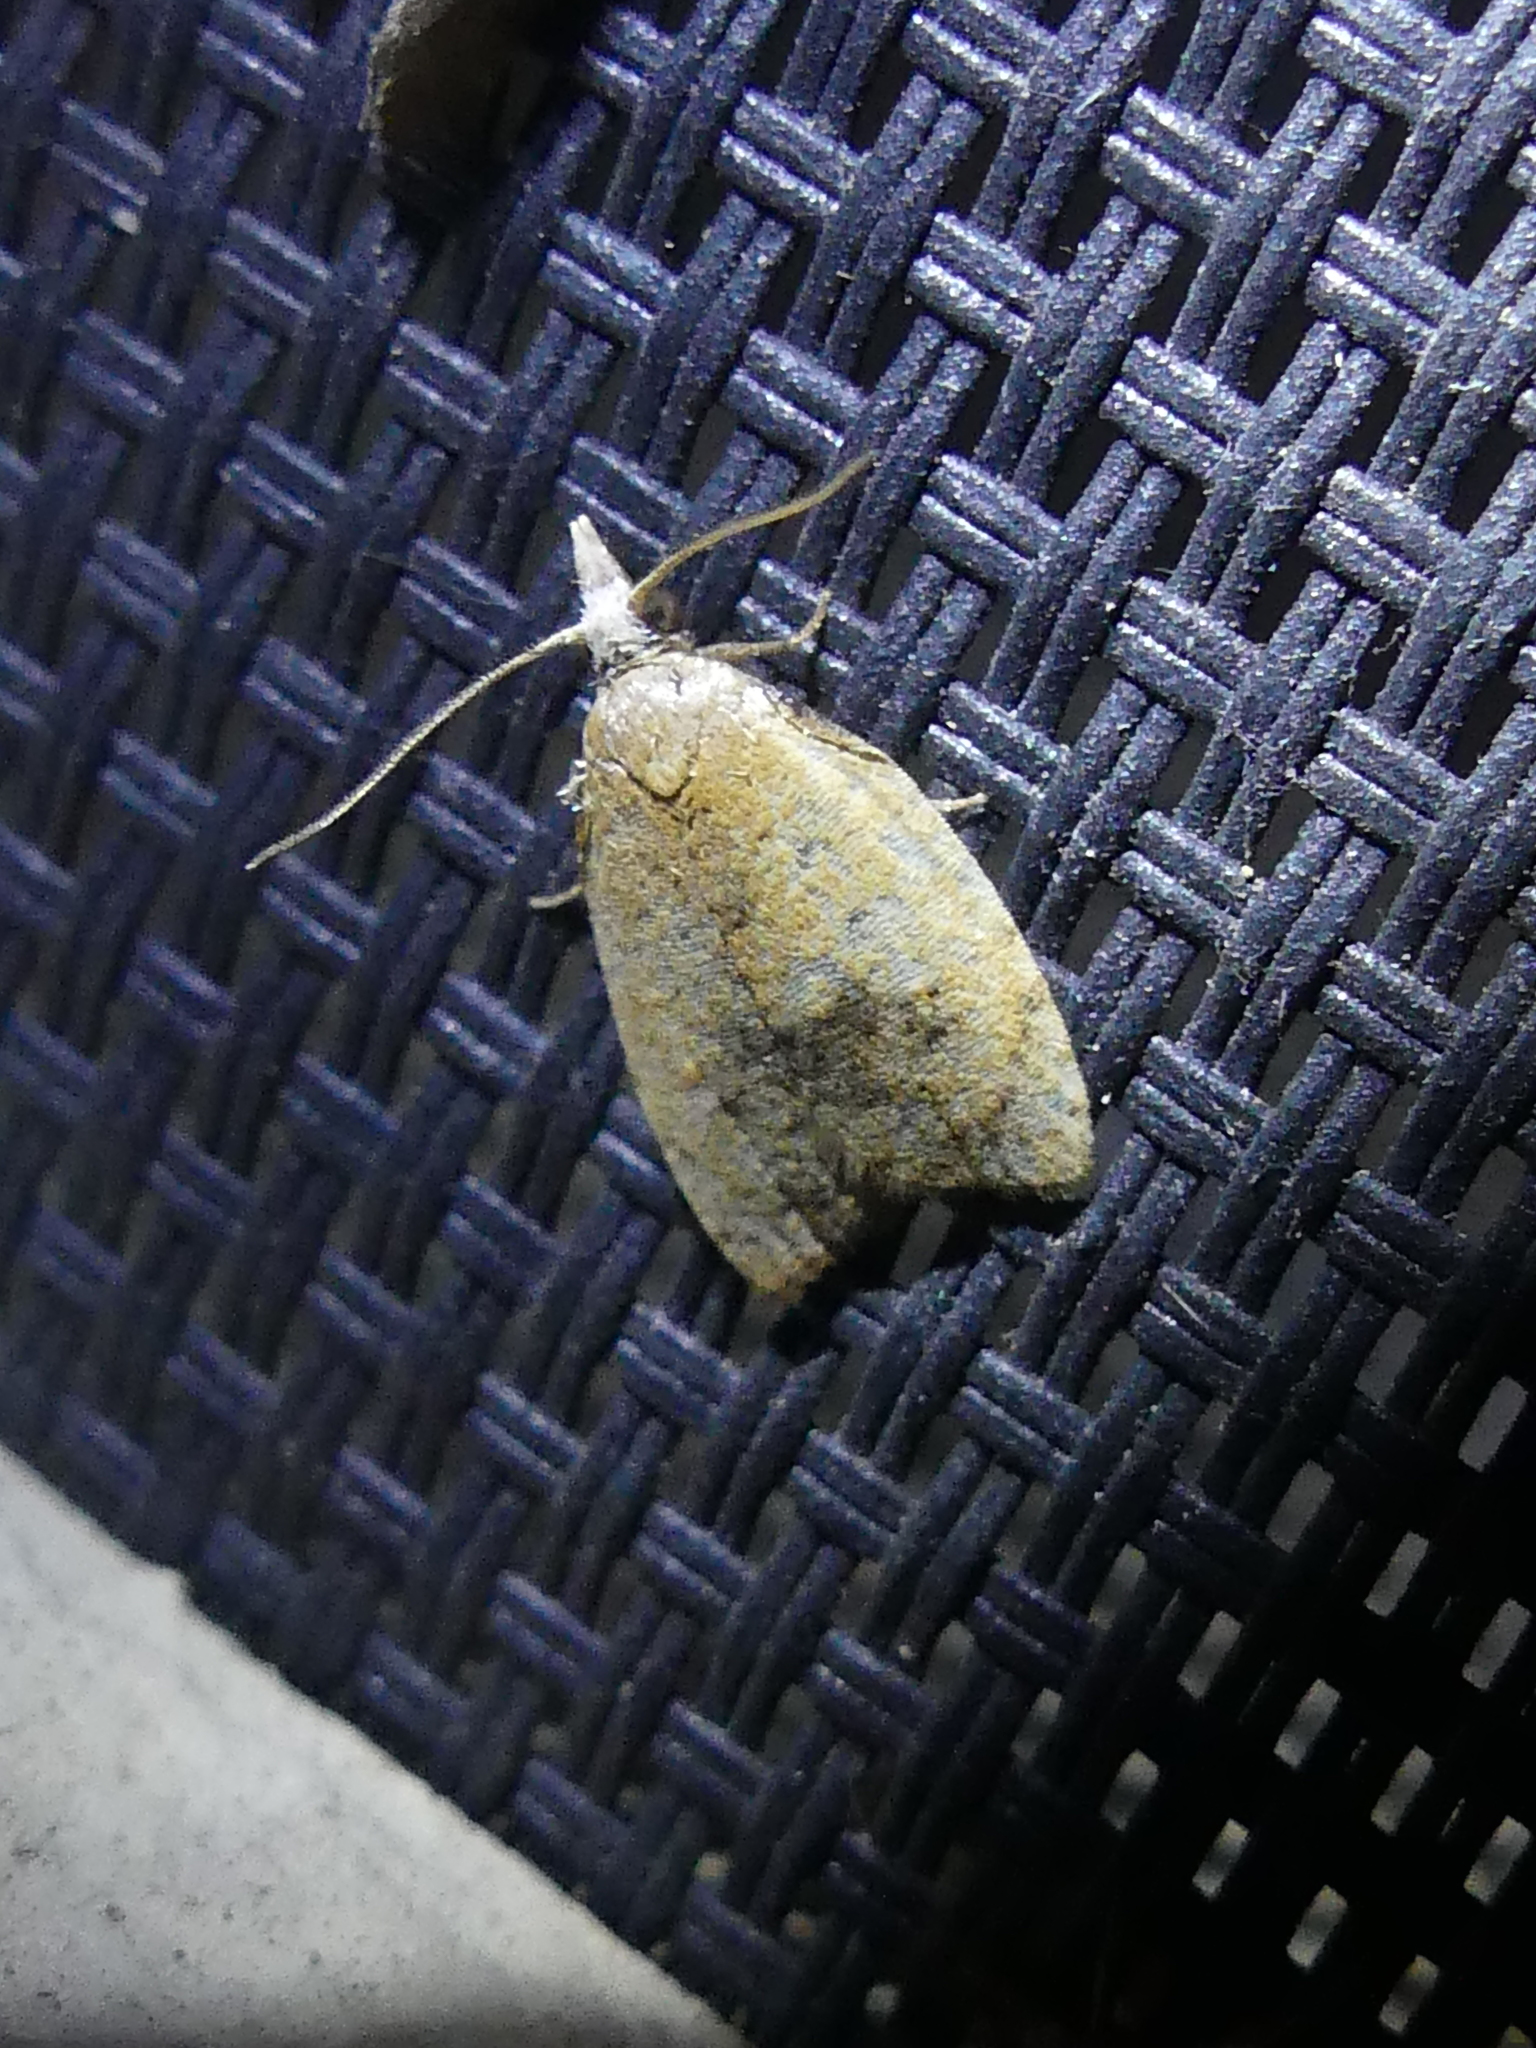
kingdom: Animalia
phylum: Arthropoda
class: Insecta
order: Lepidoptera
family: Tortricidae
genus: Sparganothoides
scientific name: Sparganothoides lentiginosana
